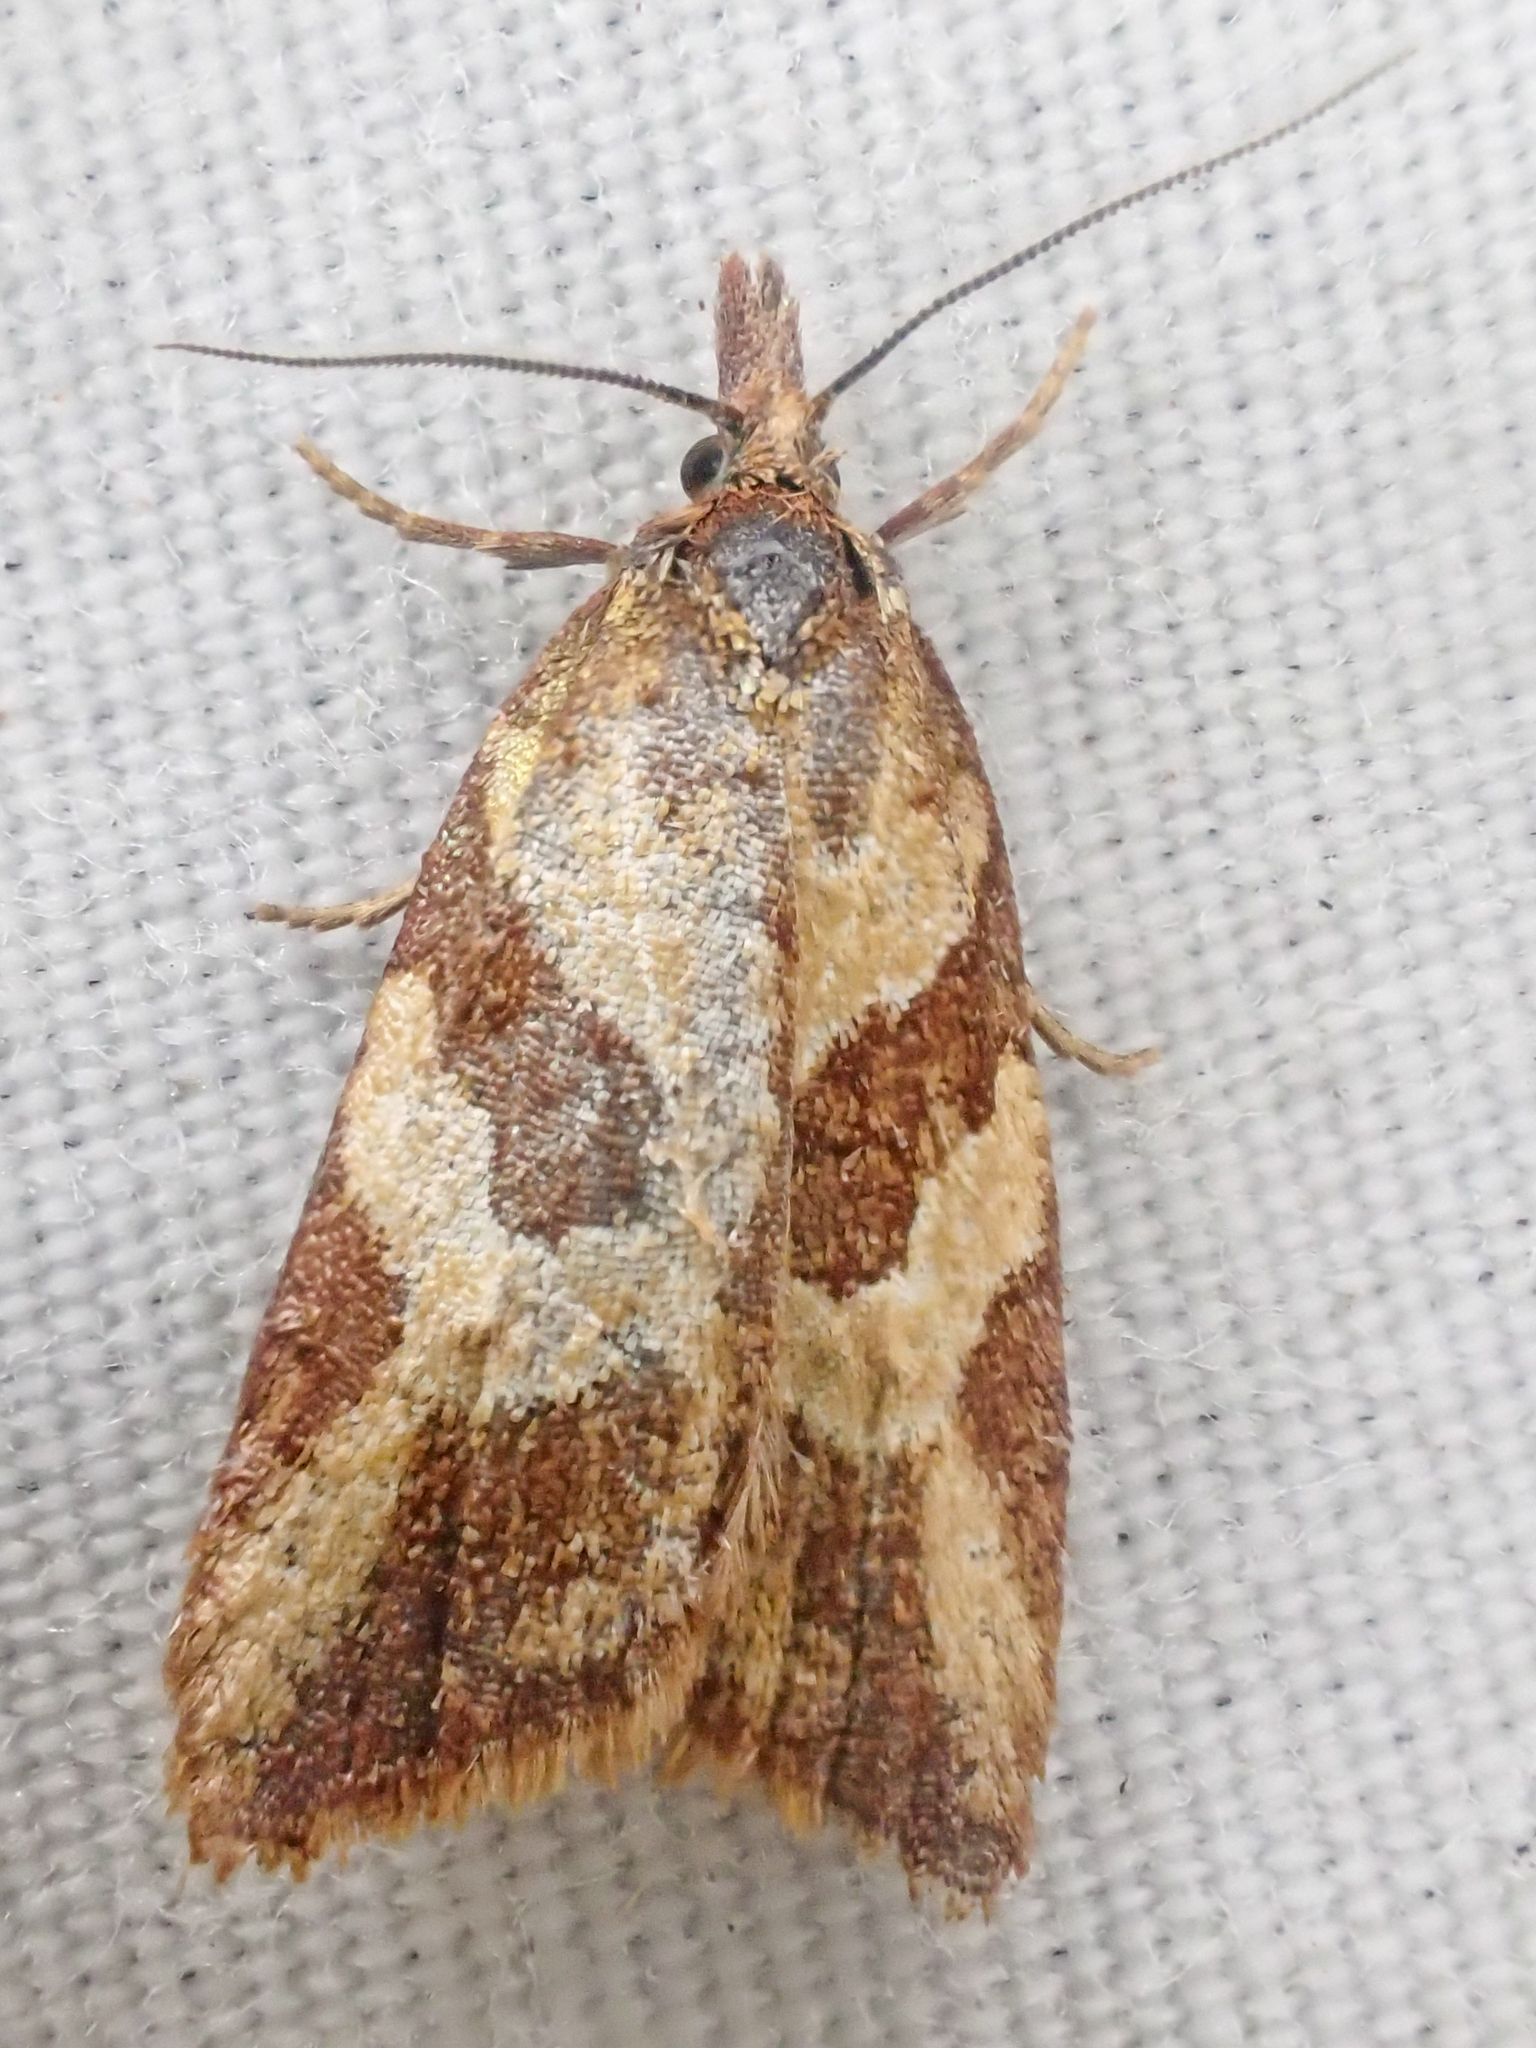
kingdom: Animalia
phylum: Arthropoda
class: Insecta
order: Lepidoptera
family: Tortricidae
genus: Sparganothis
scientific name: Sparganothis senecionana
